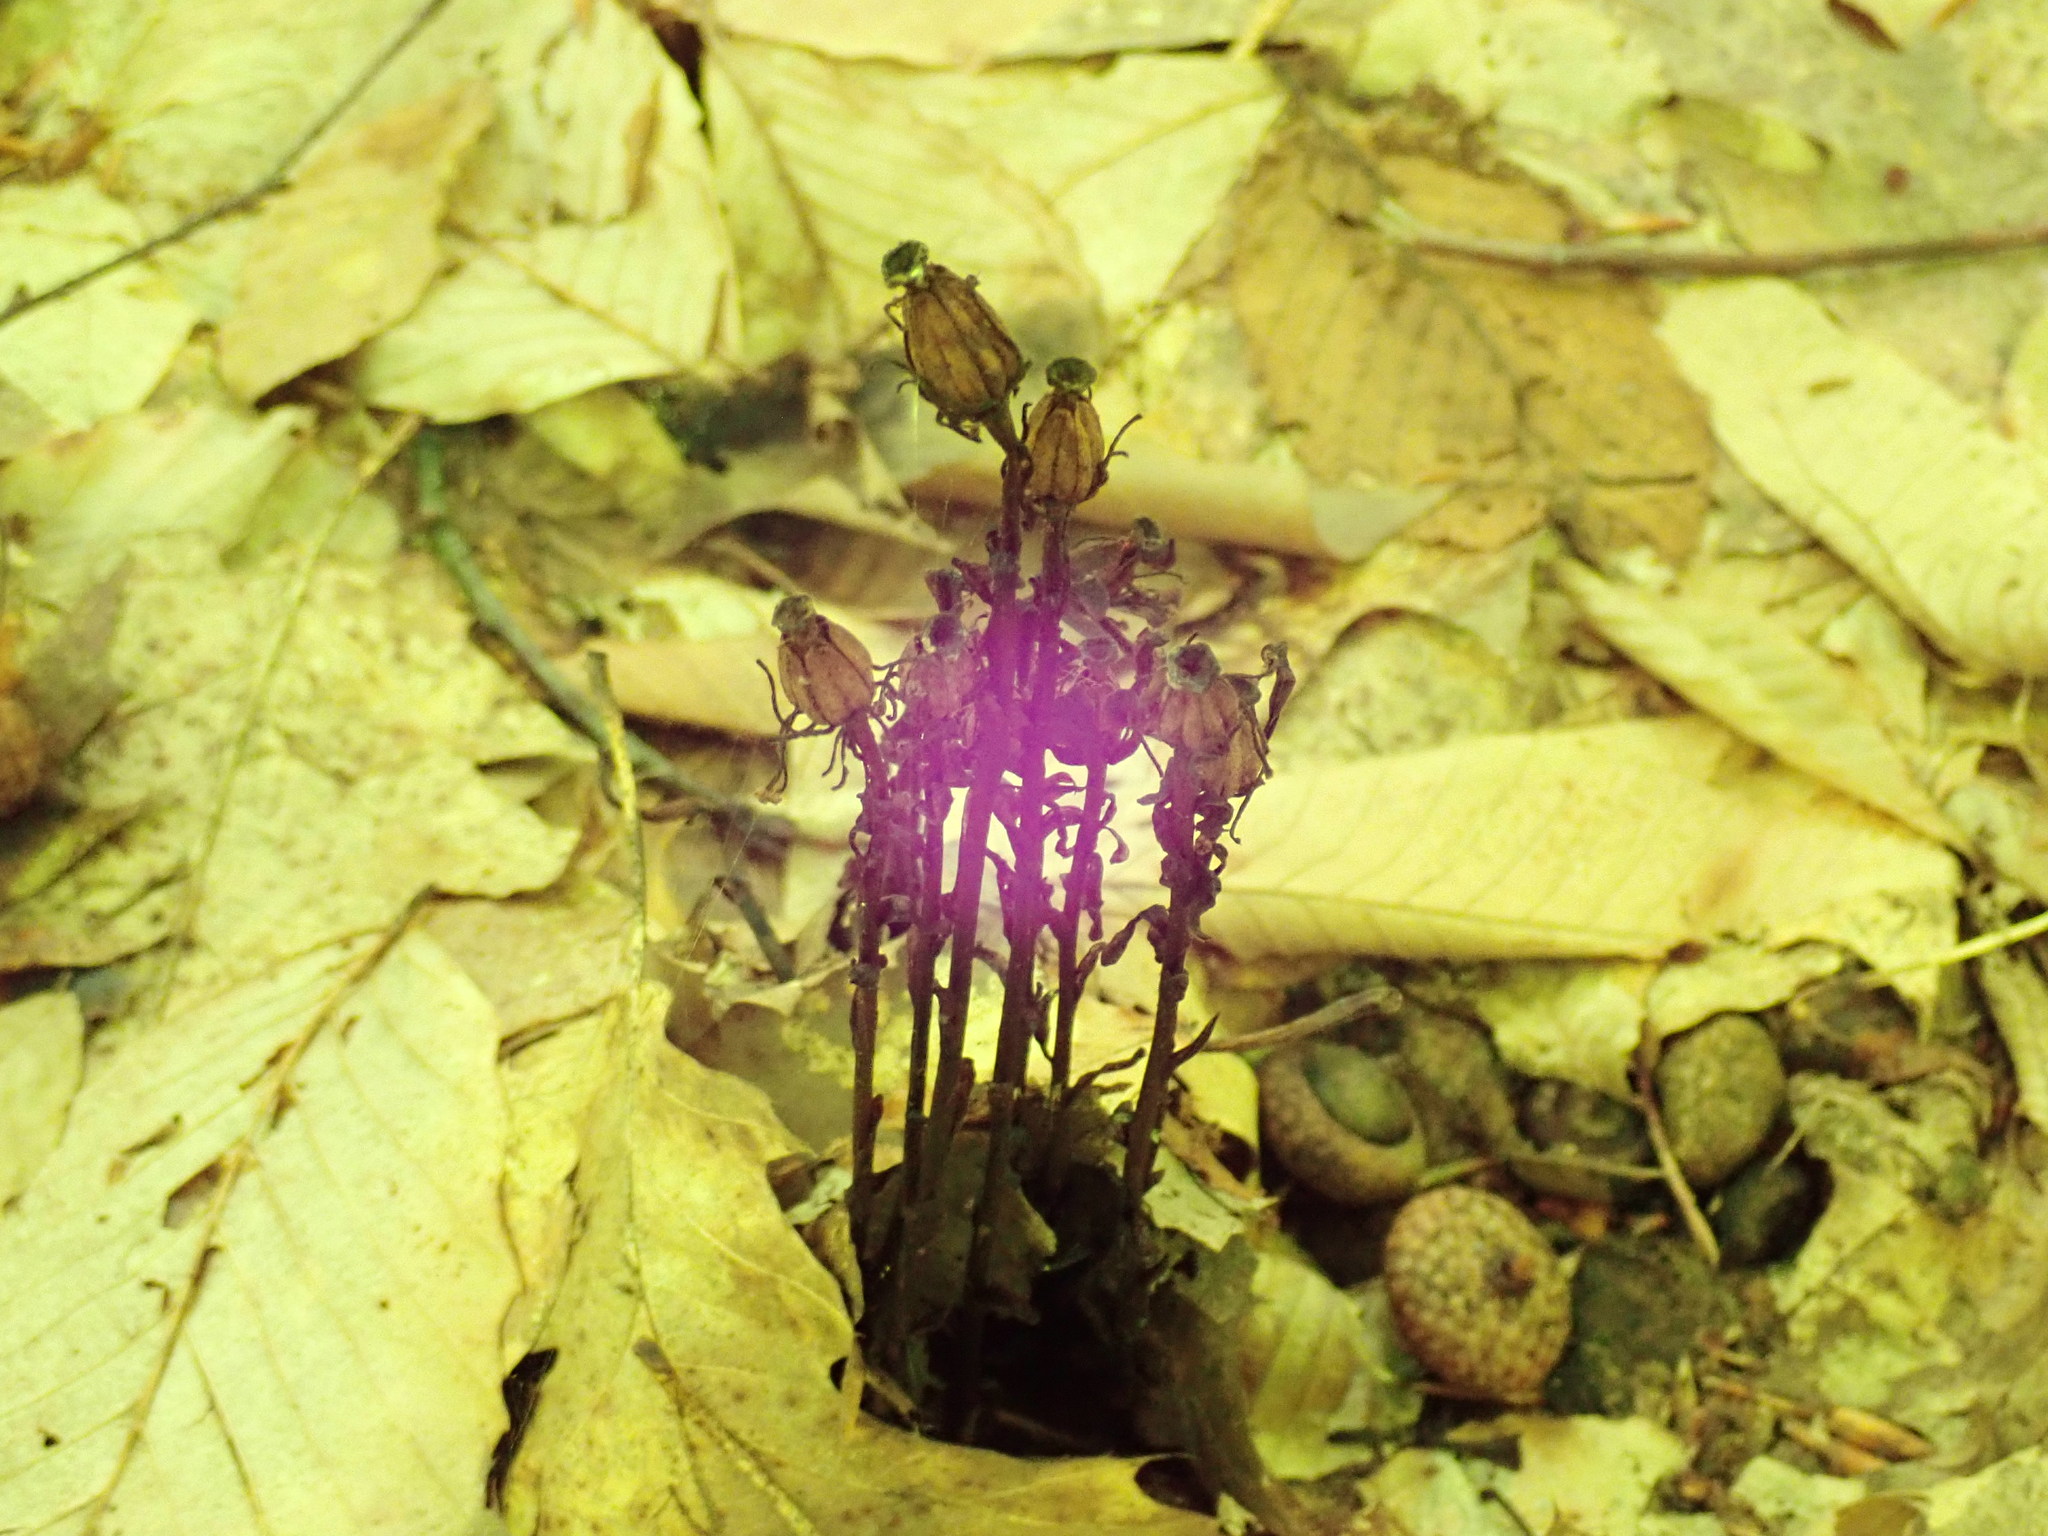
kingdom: Plantae
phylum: Tracheophyta
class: Magnoliopsida
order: Ericales
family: Ericaceae
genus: Monotropa
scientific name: Monotropa uniflora
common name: Convulsion root
